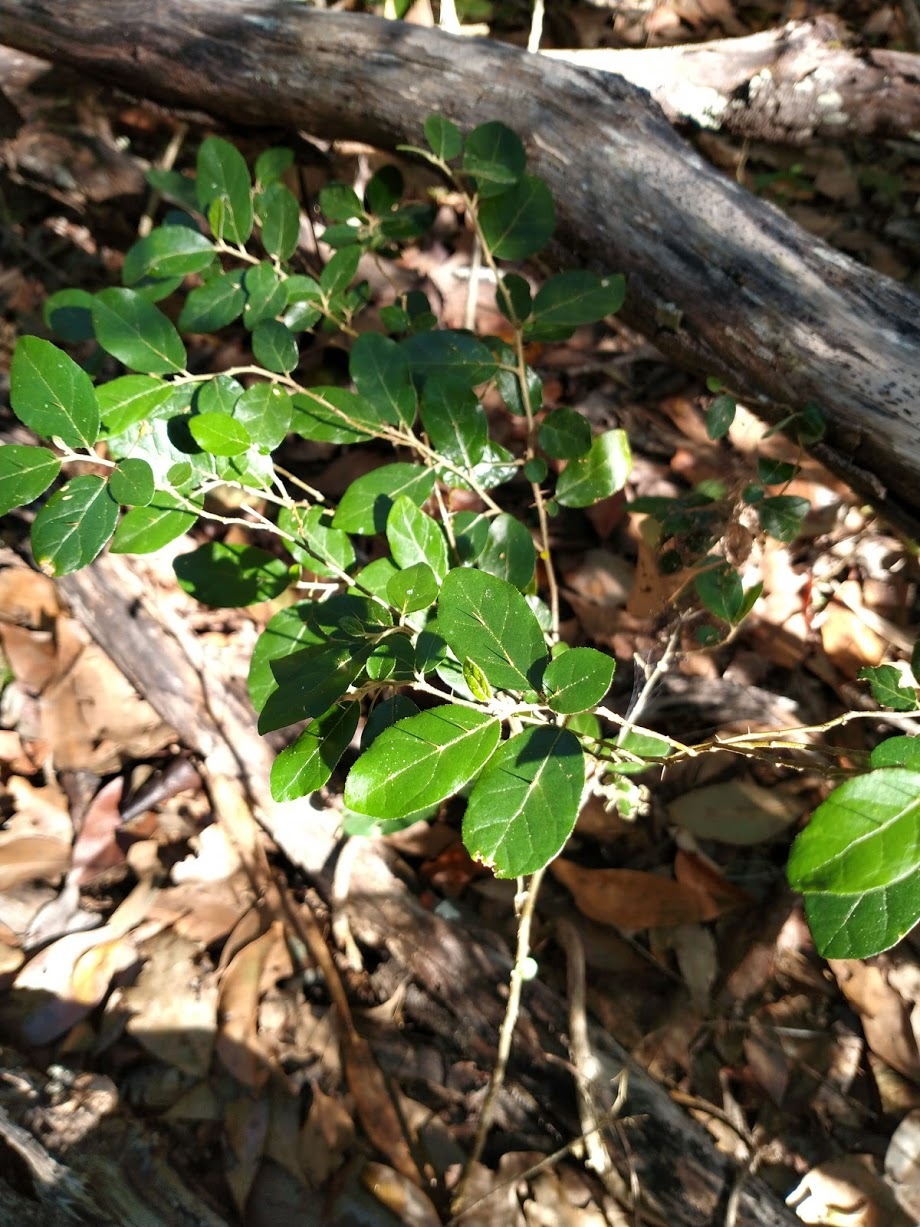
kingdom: Plantae
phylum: Tracheophyta
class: Magnoliopsida
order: Solanales
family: Solanaceae
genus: Solanum
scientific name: Solanum shirleyanum
